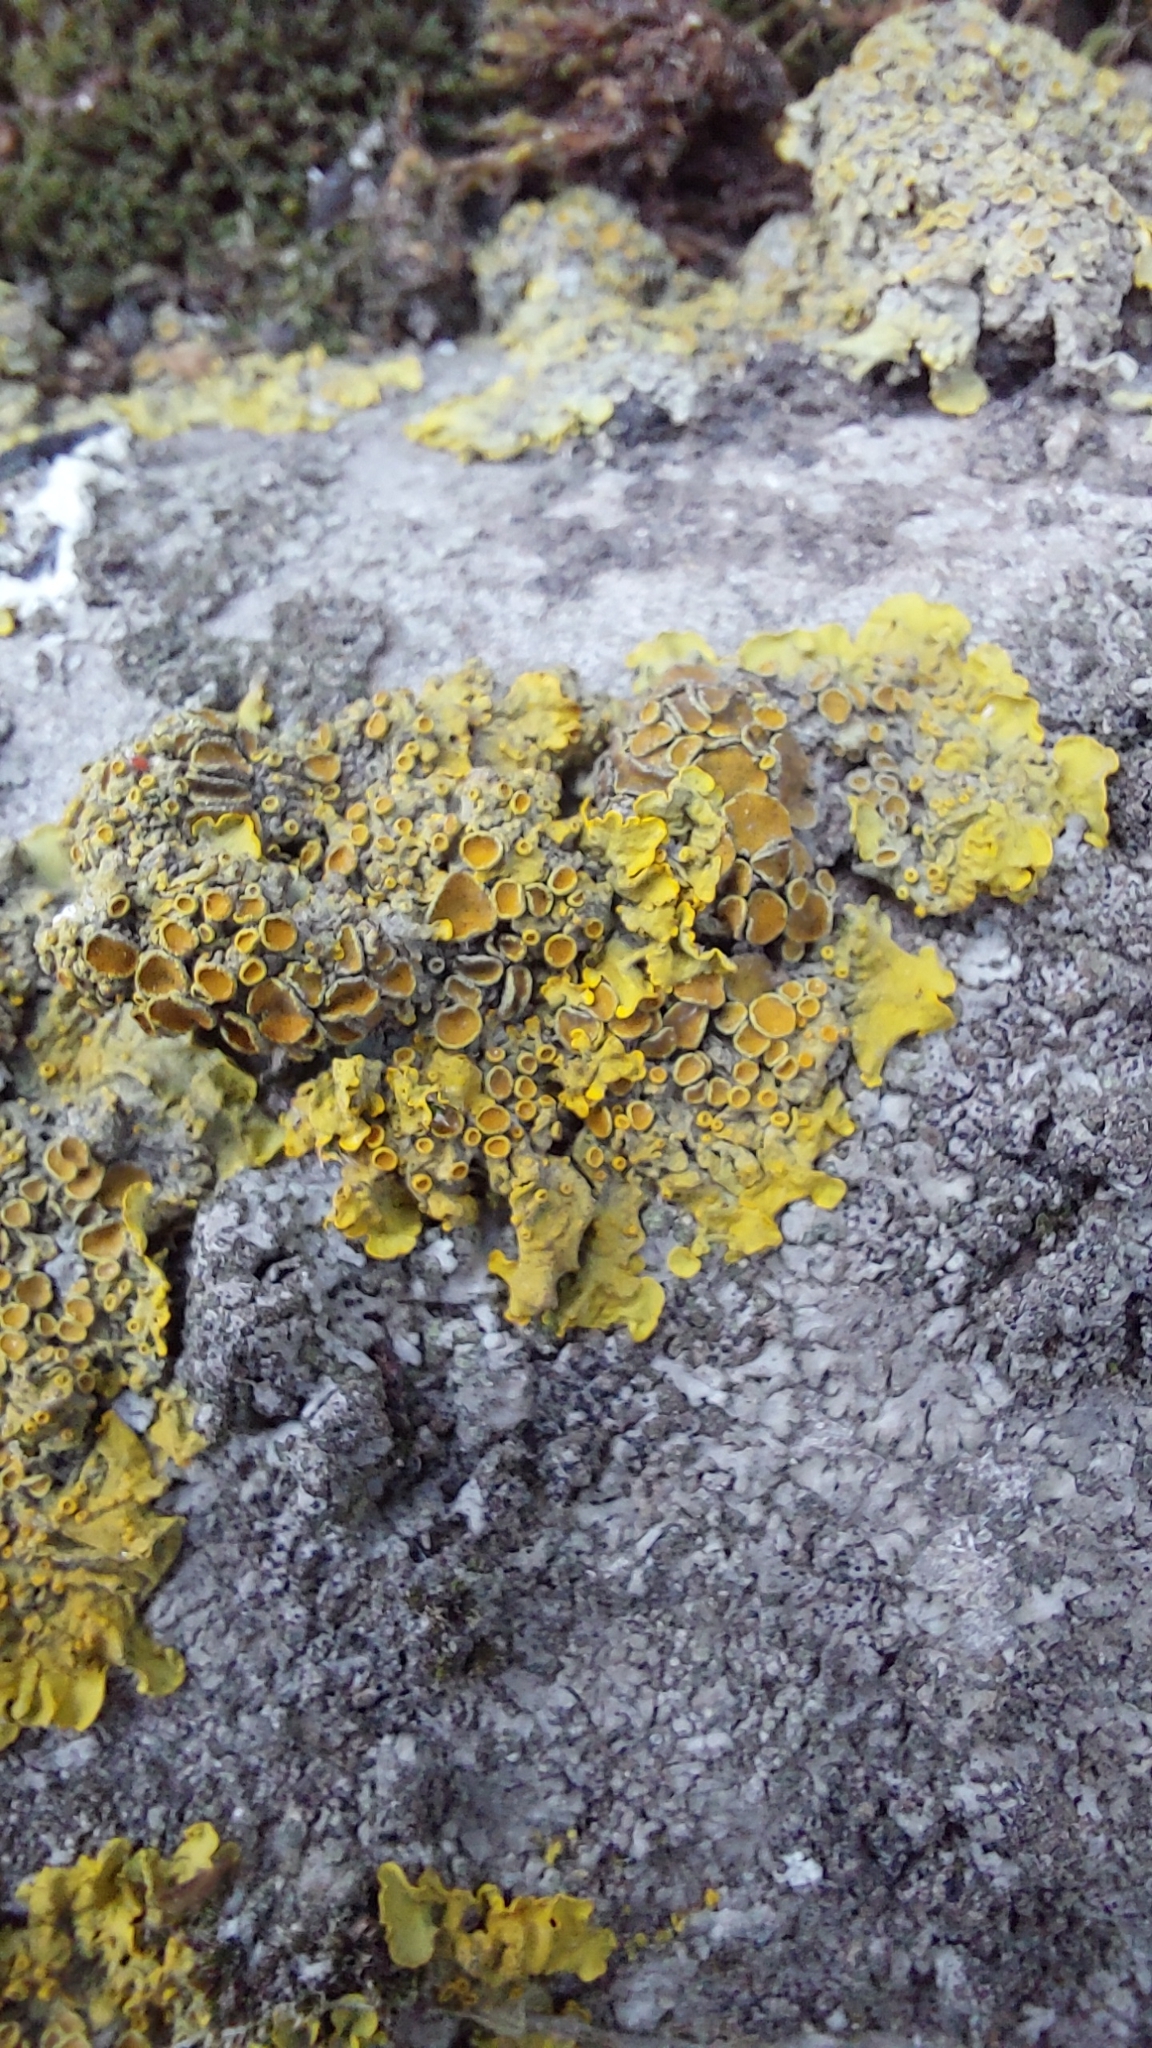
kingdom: Fungi
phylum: Ascomycota
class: Lecanoromycetes
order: Teloschistales
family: Teloschistaceae
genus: Xanthoria
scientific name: Xanthoria parietina
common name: Common orange lichen
